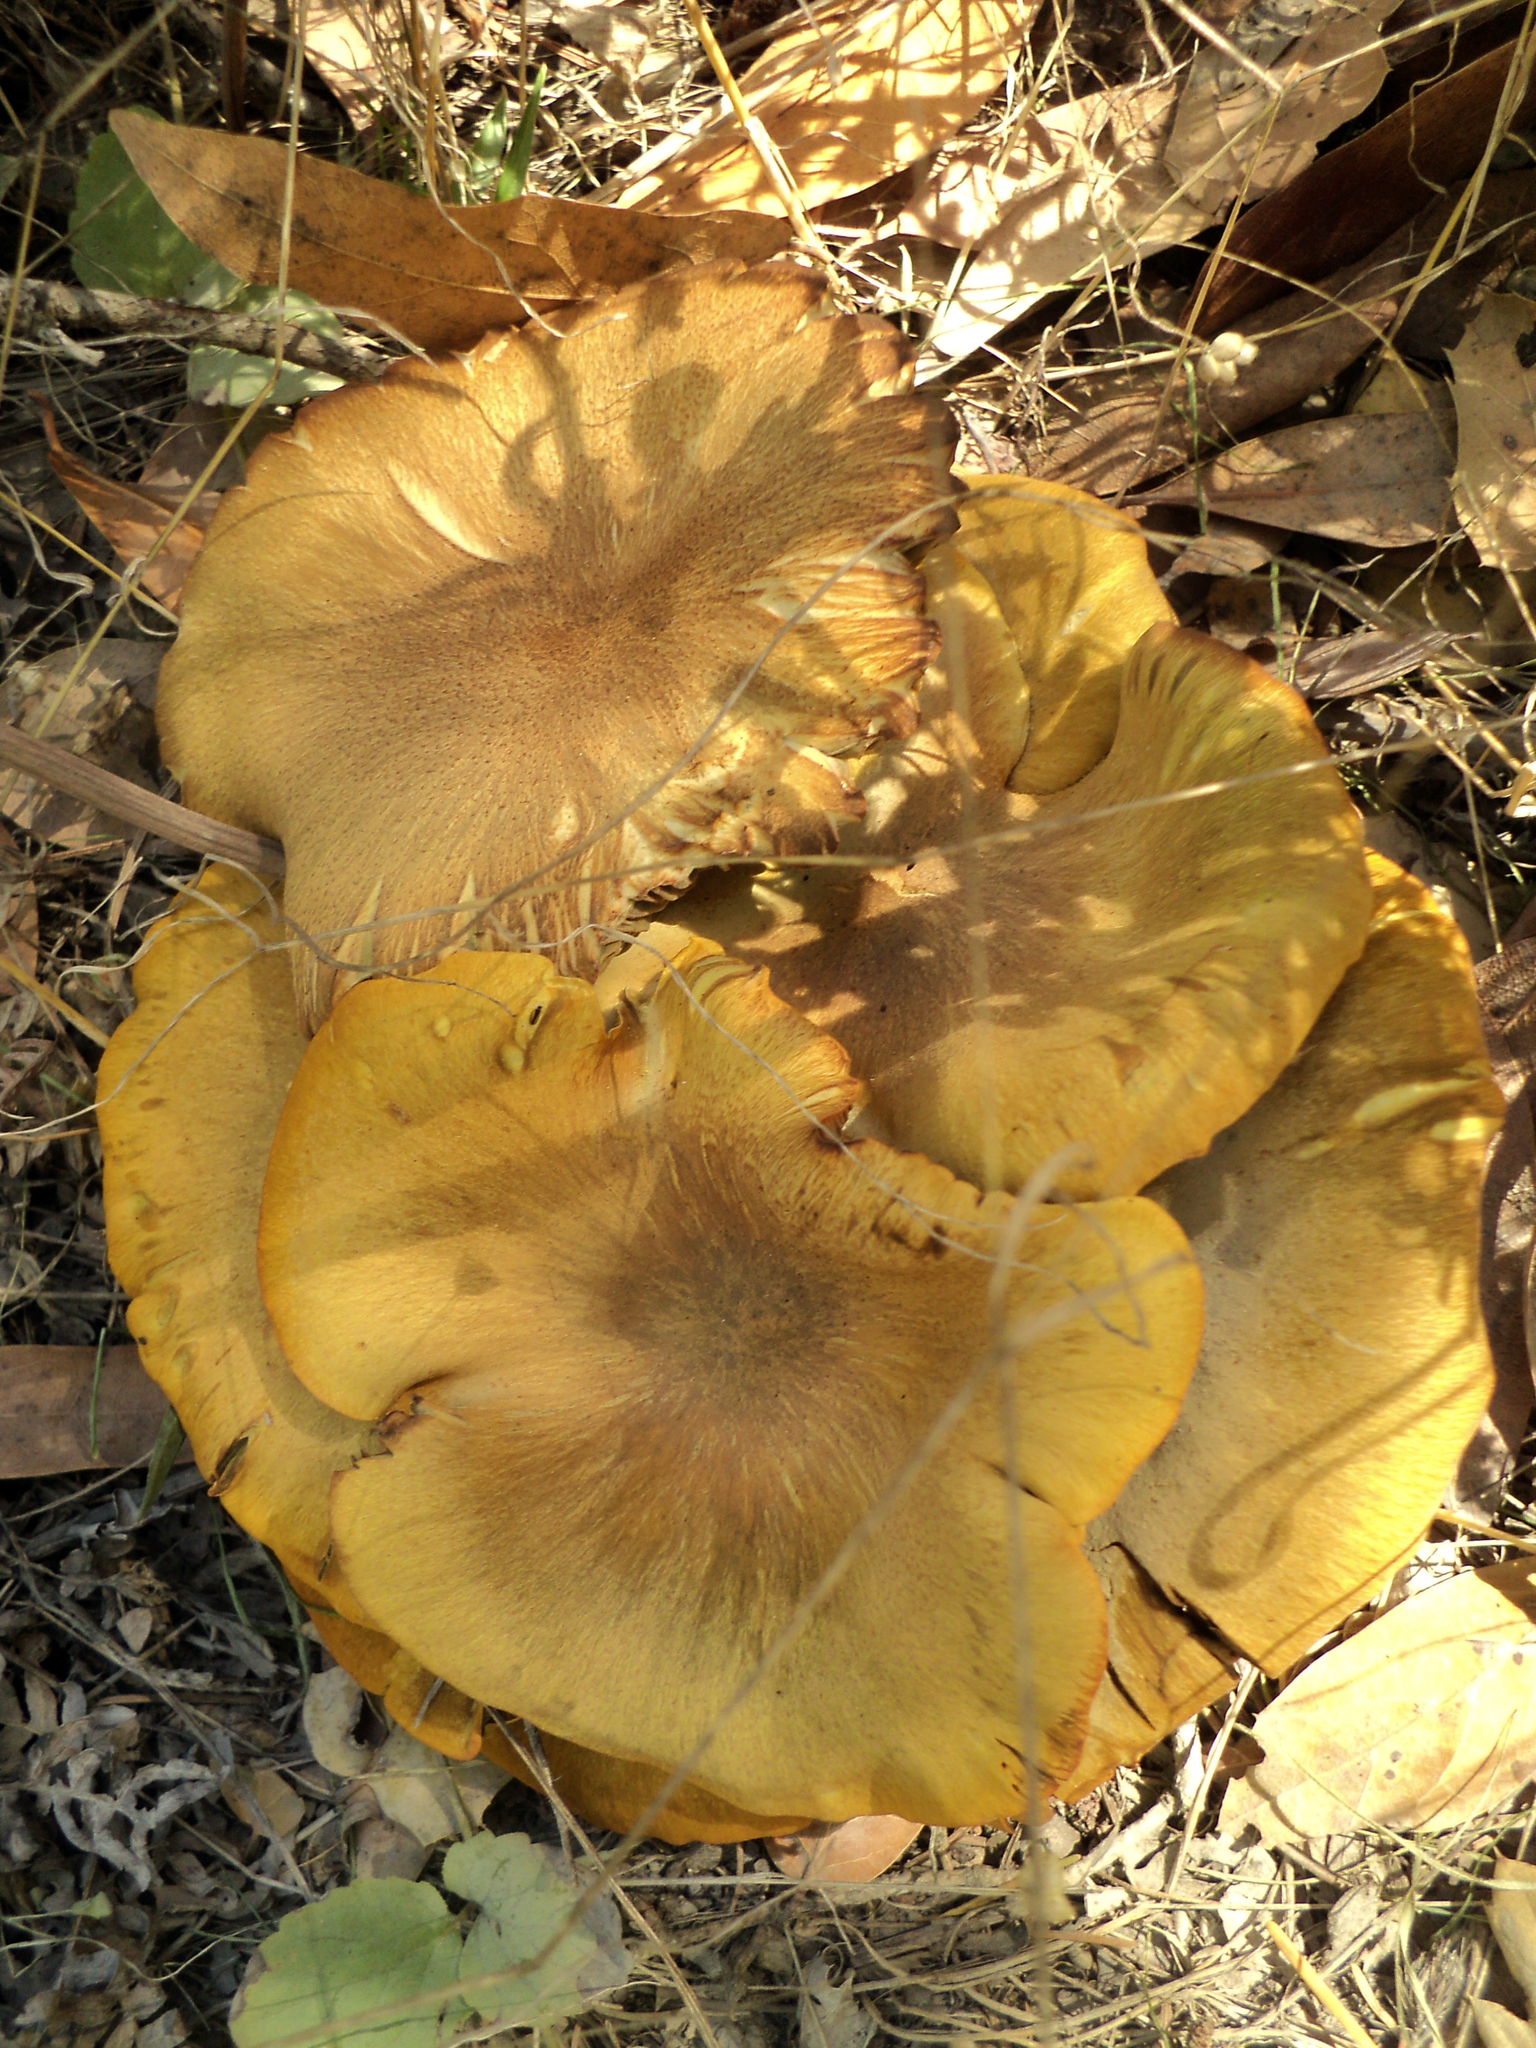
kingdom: Fungi
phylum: Basidiomycota
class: Agaricomycetes
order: Agaricales
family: Omphalotaceae
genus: Omphalotus
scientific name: Omphalotus olivascens
